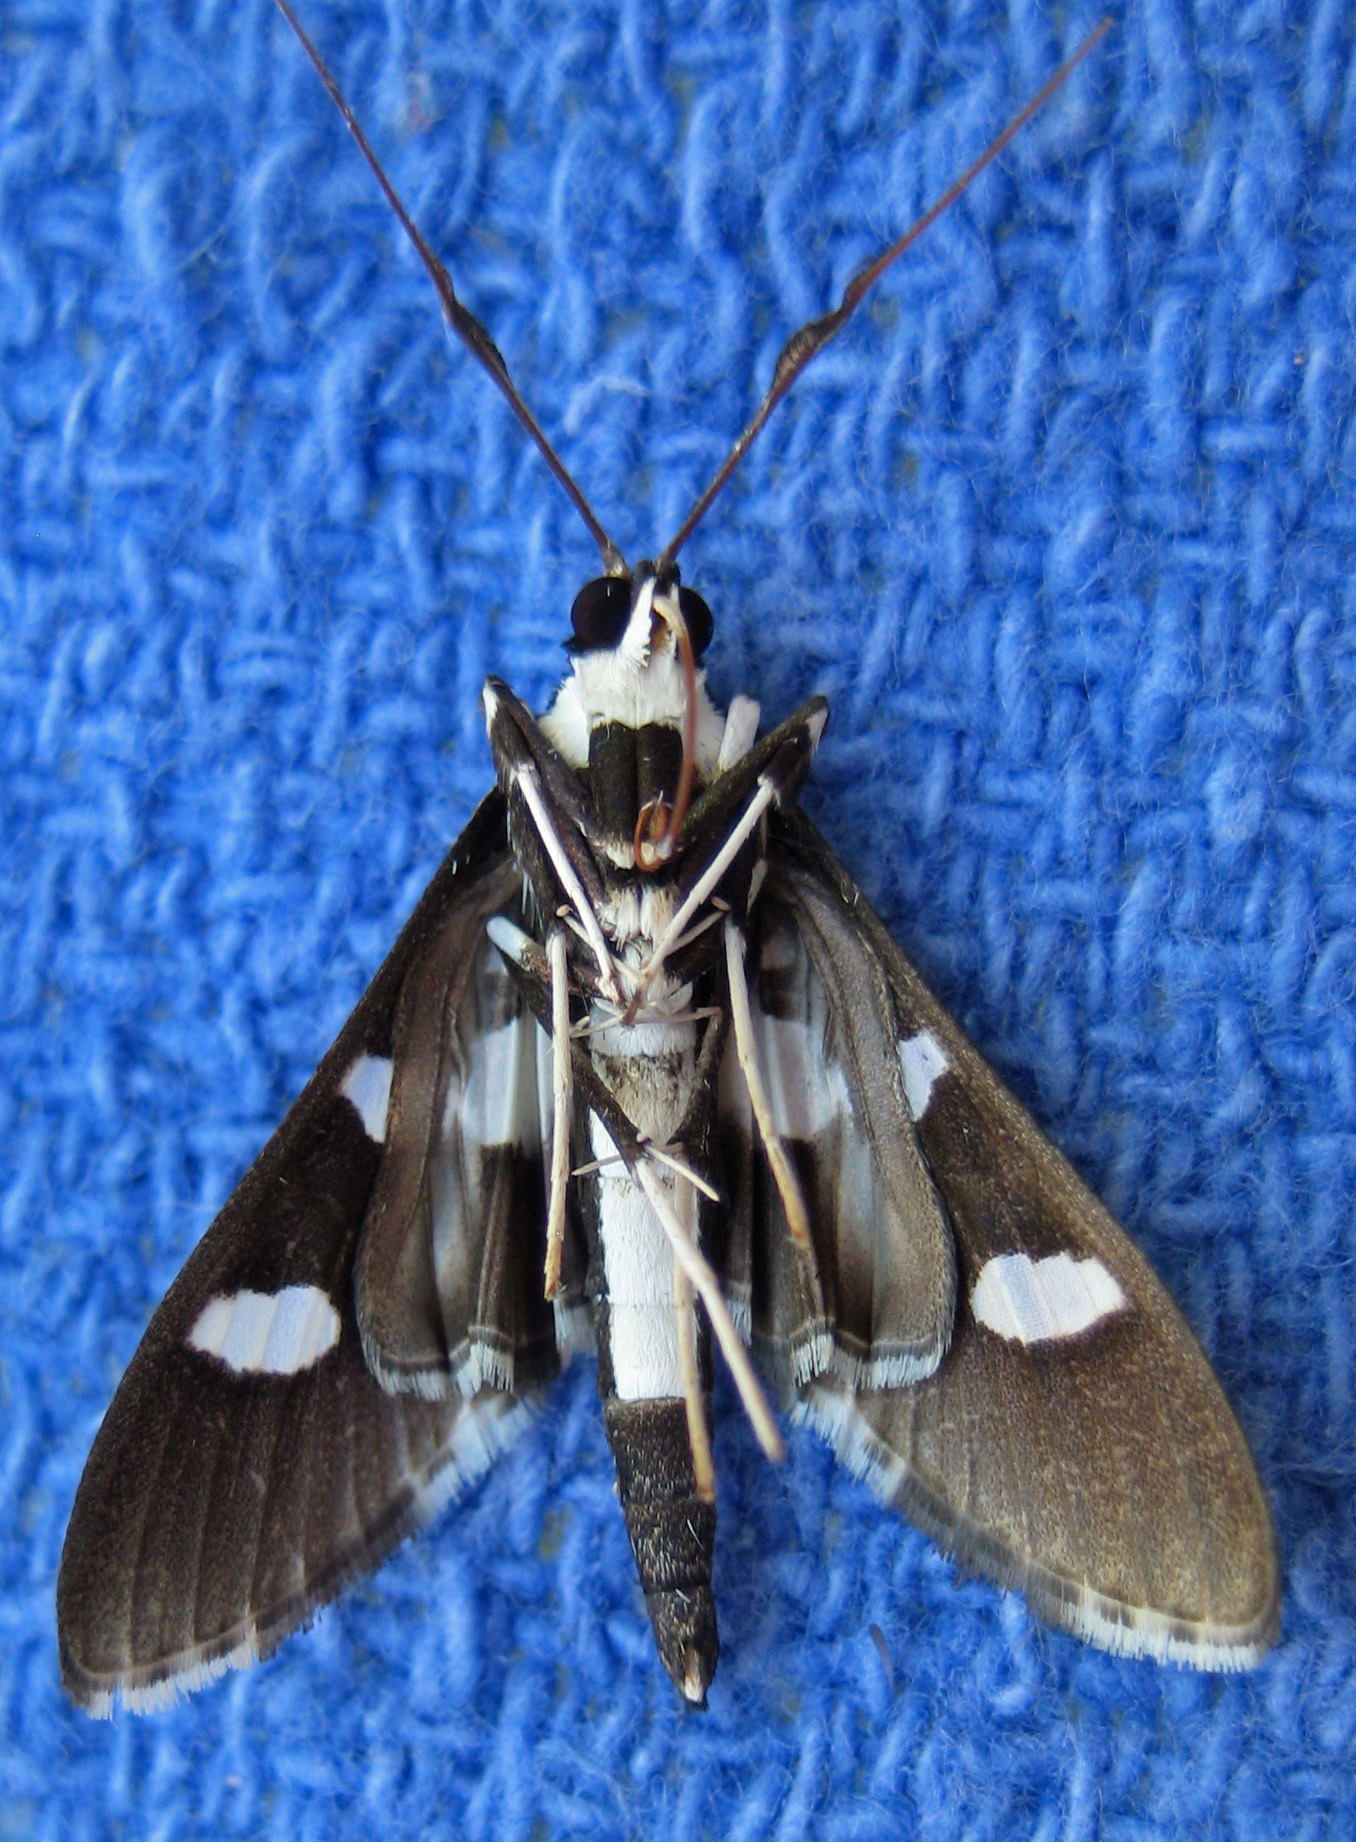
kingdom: Animalia
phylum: Arthropoda
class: Insecta
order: Lepidoptera
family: Crambidae
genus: Desmia
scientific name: Desmia funeralis
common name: Grape leaf folder moth
